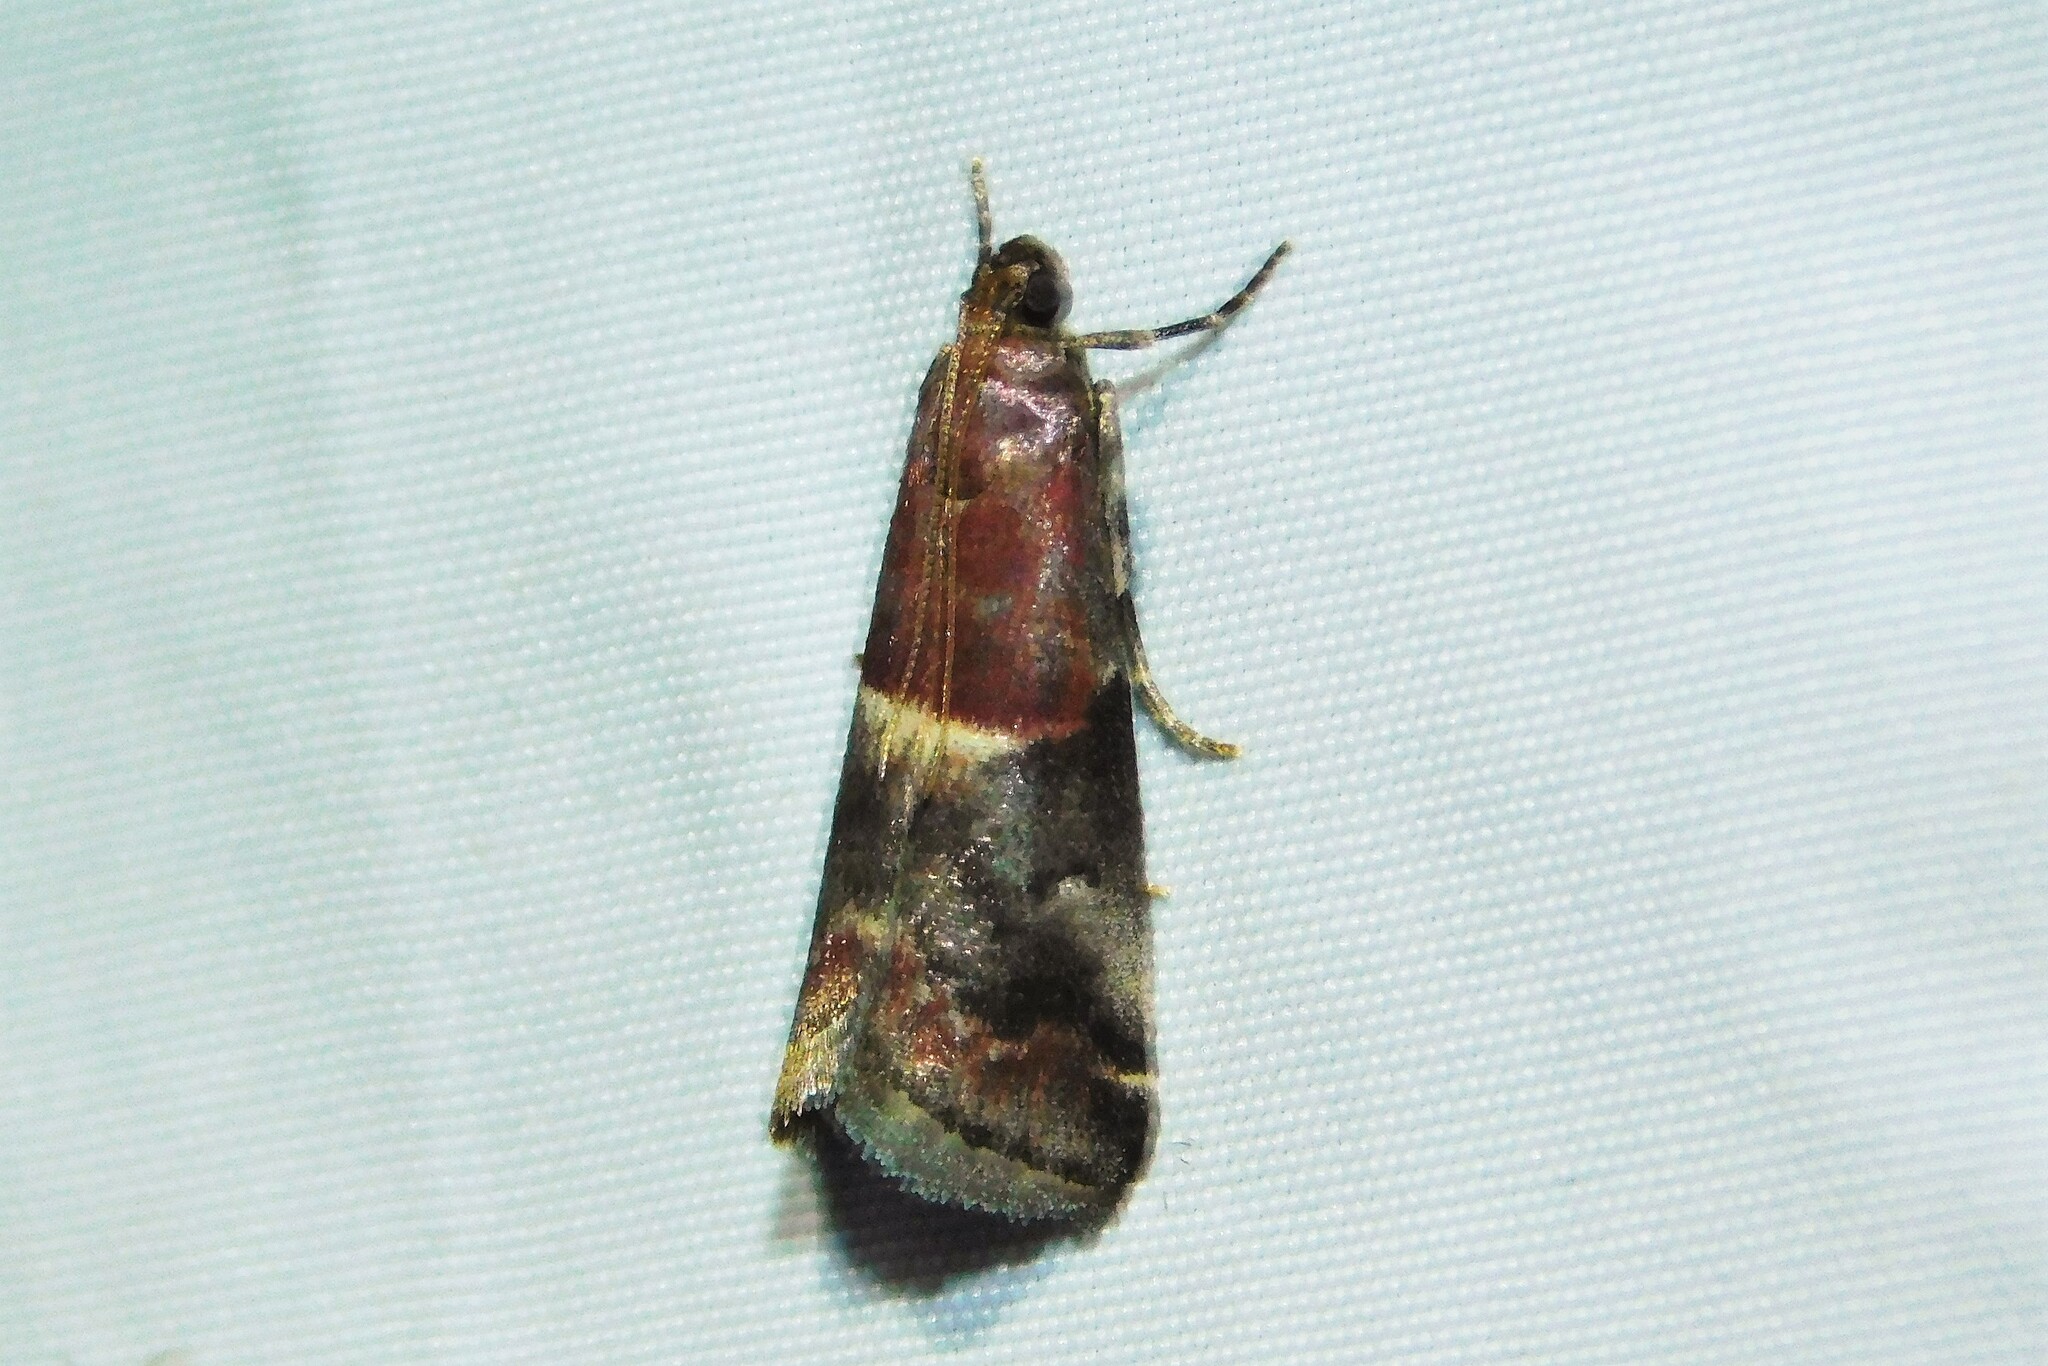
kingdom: Animalia
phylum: Arthropoda
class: Insecta
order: Lepidoptera
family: Pyralidae
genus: Acrobasis
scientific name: Acrobasis marmorea
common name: Marbled knot-horn
